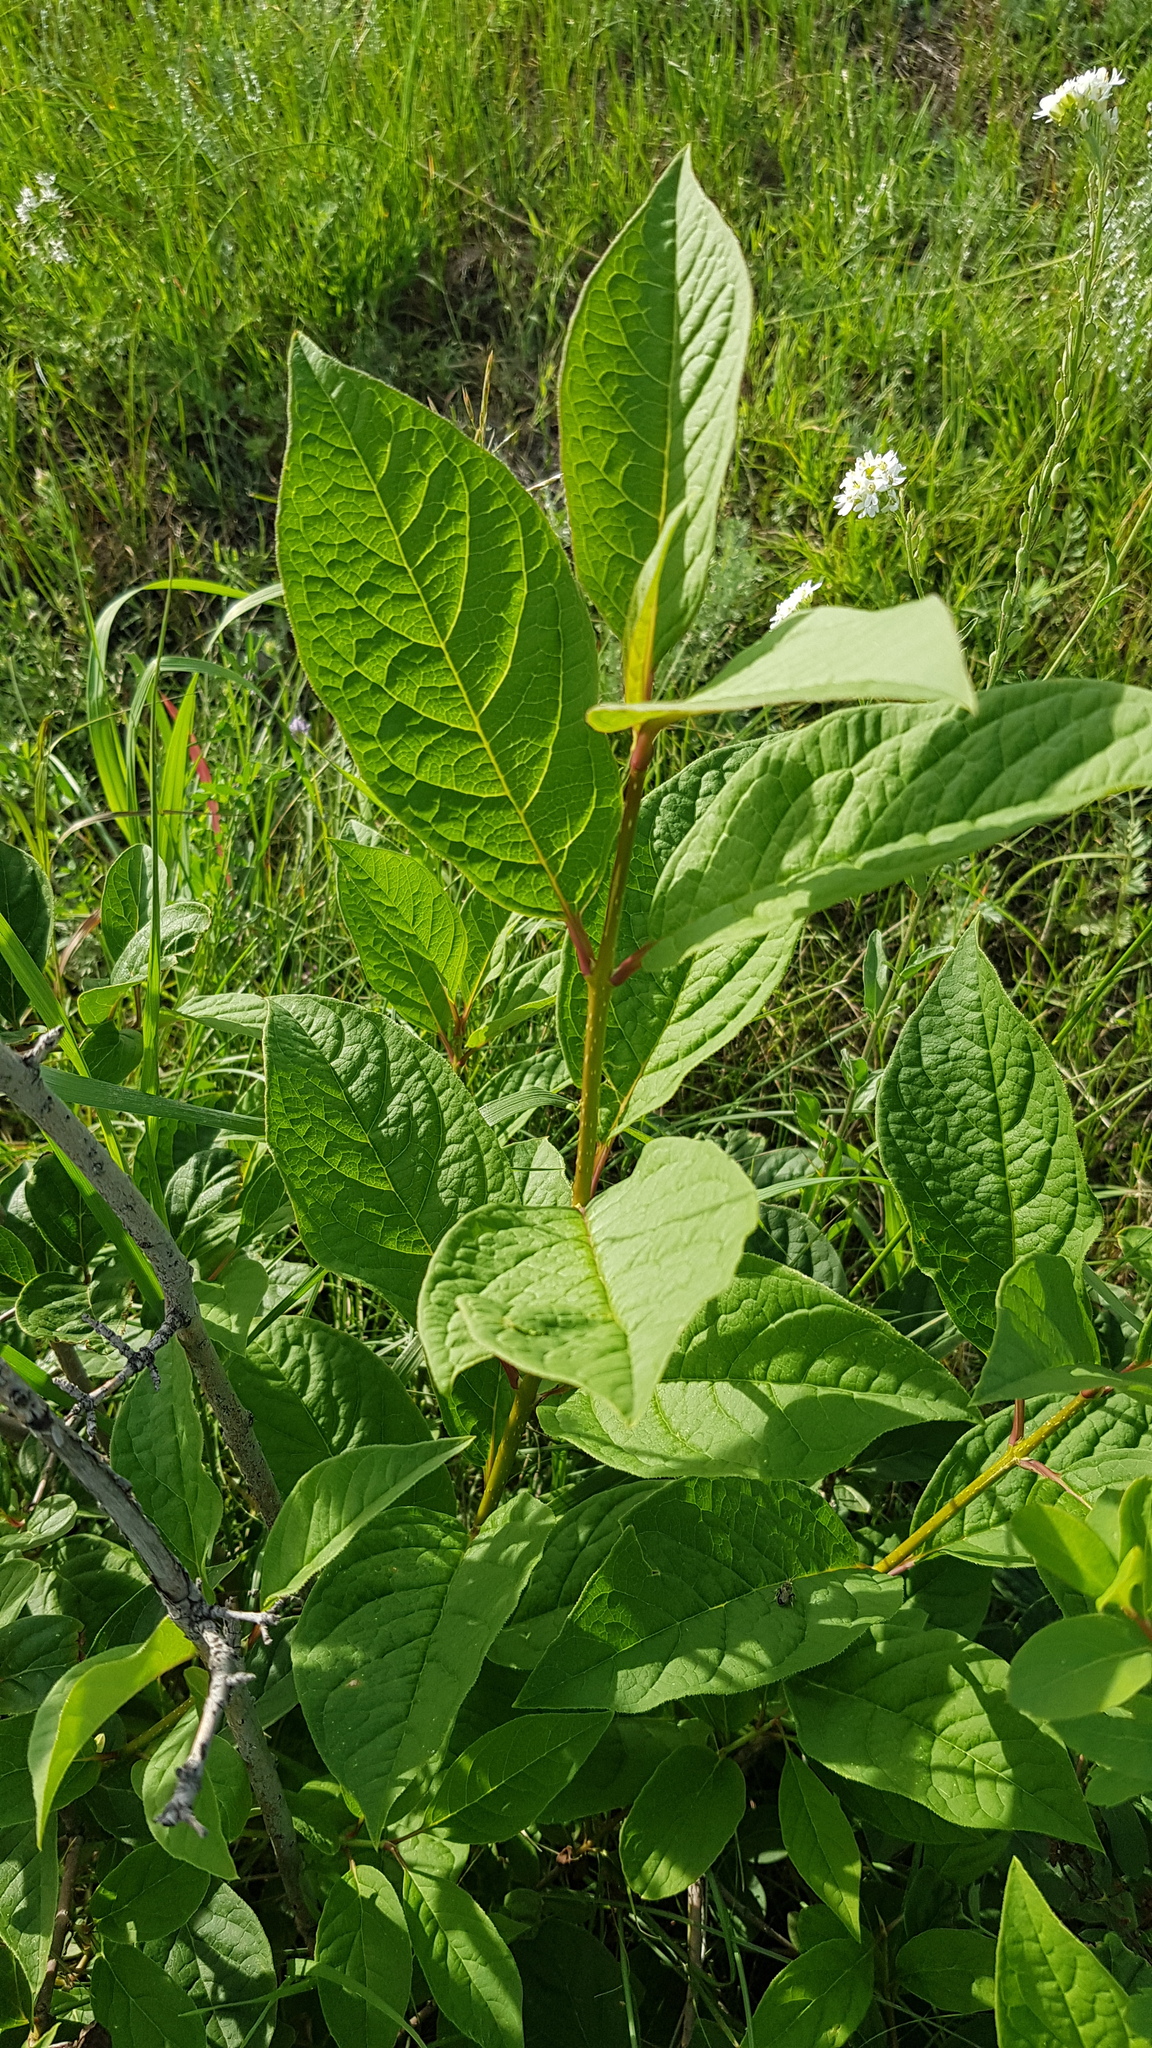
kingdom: Plantae
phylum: Tracheophyta
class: Magnoliopsida
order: Rosales
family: Rosaceae
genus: Prunus
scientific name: Prunus padus
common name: Bird cherry
